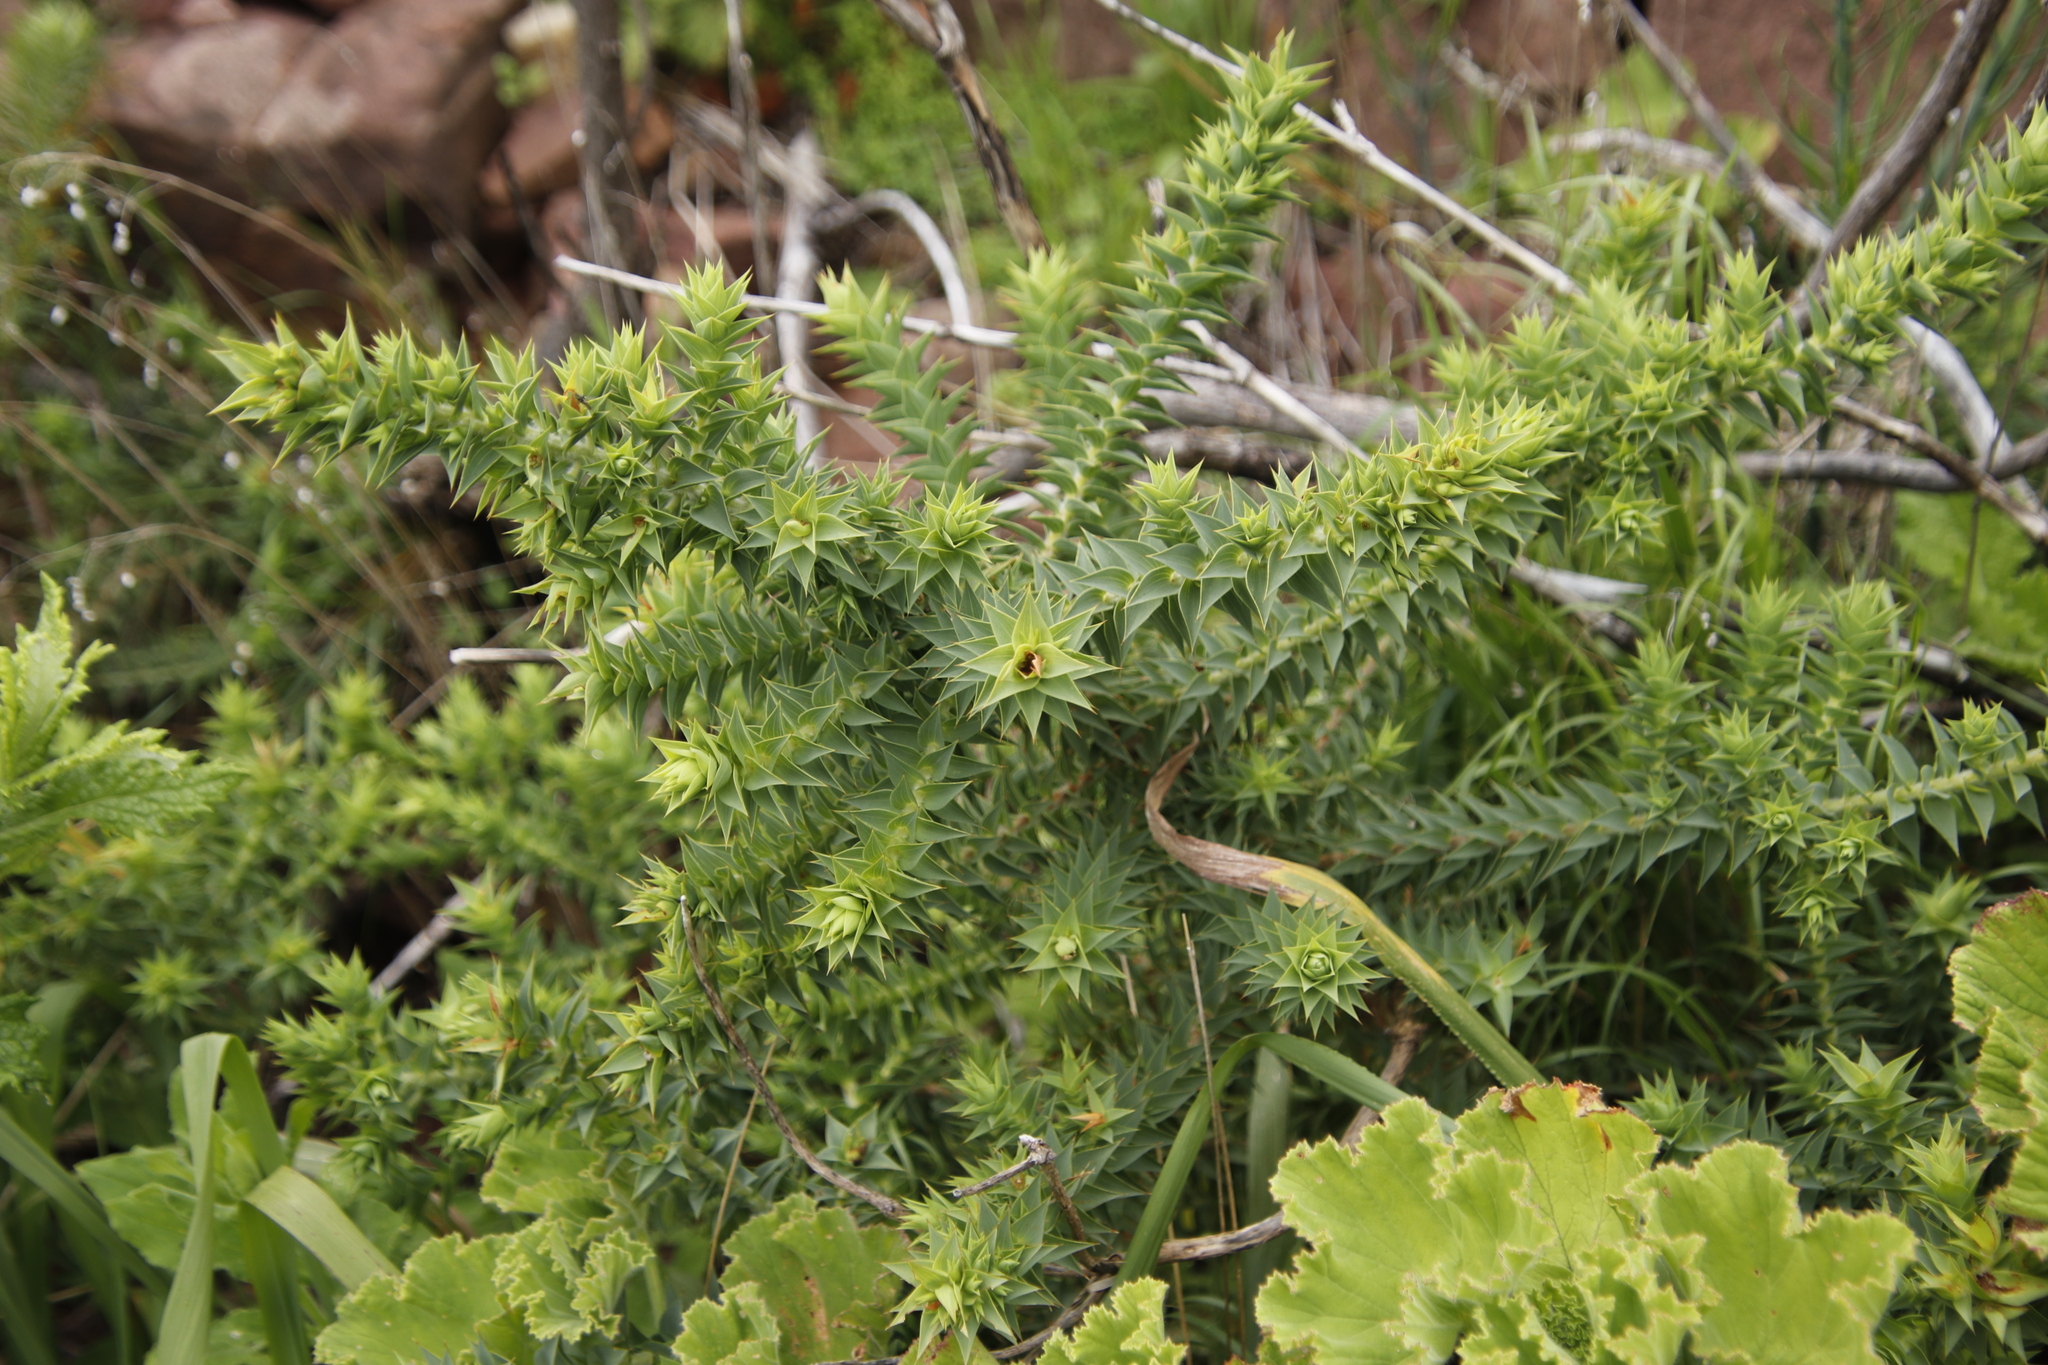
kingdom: Plantae
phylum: Tracheophyta
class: Magnoliopsida
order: Fabales
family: Fabaceae
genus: Aspalathus
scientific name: Aspalathus cordata
